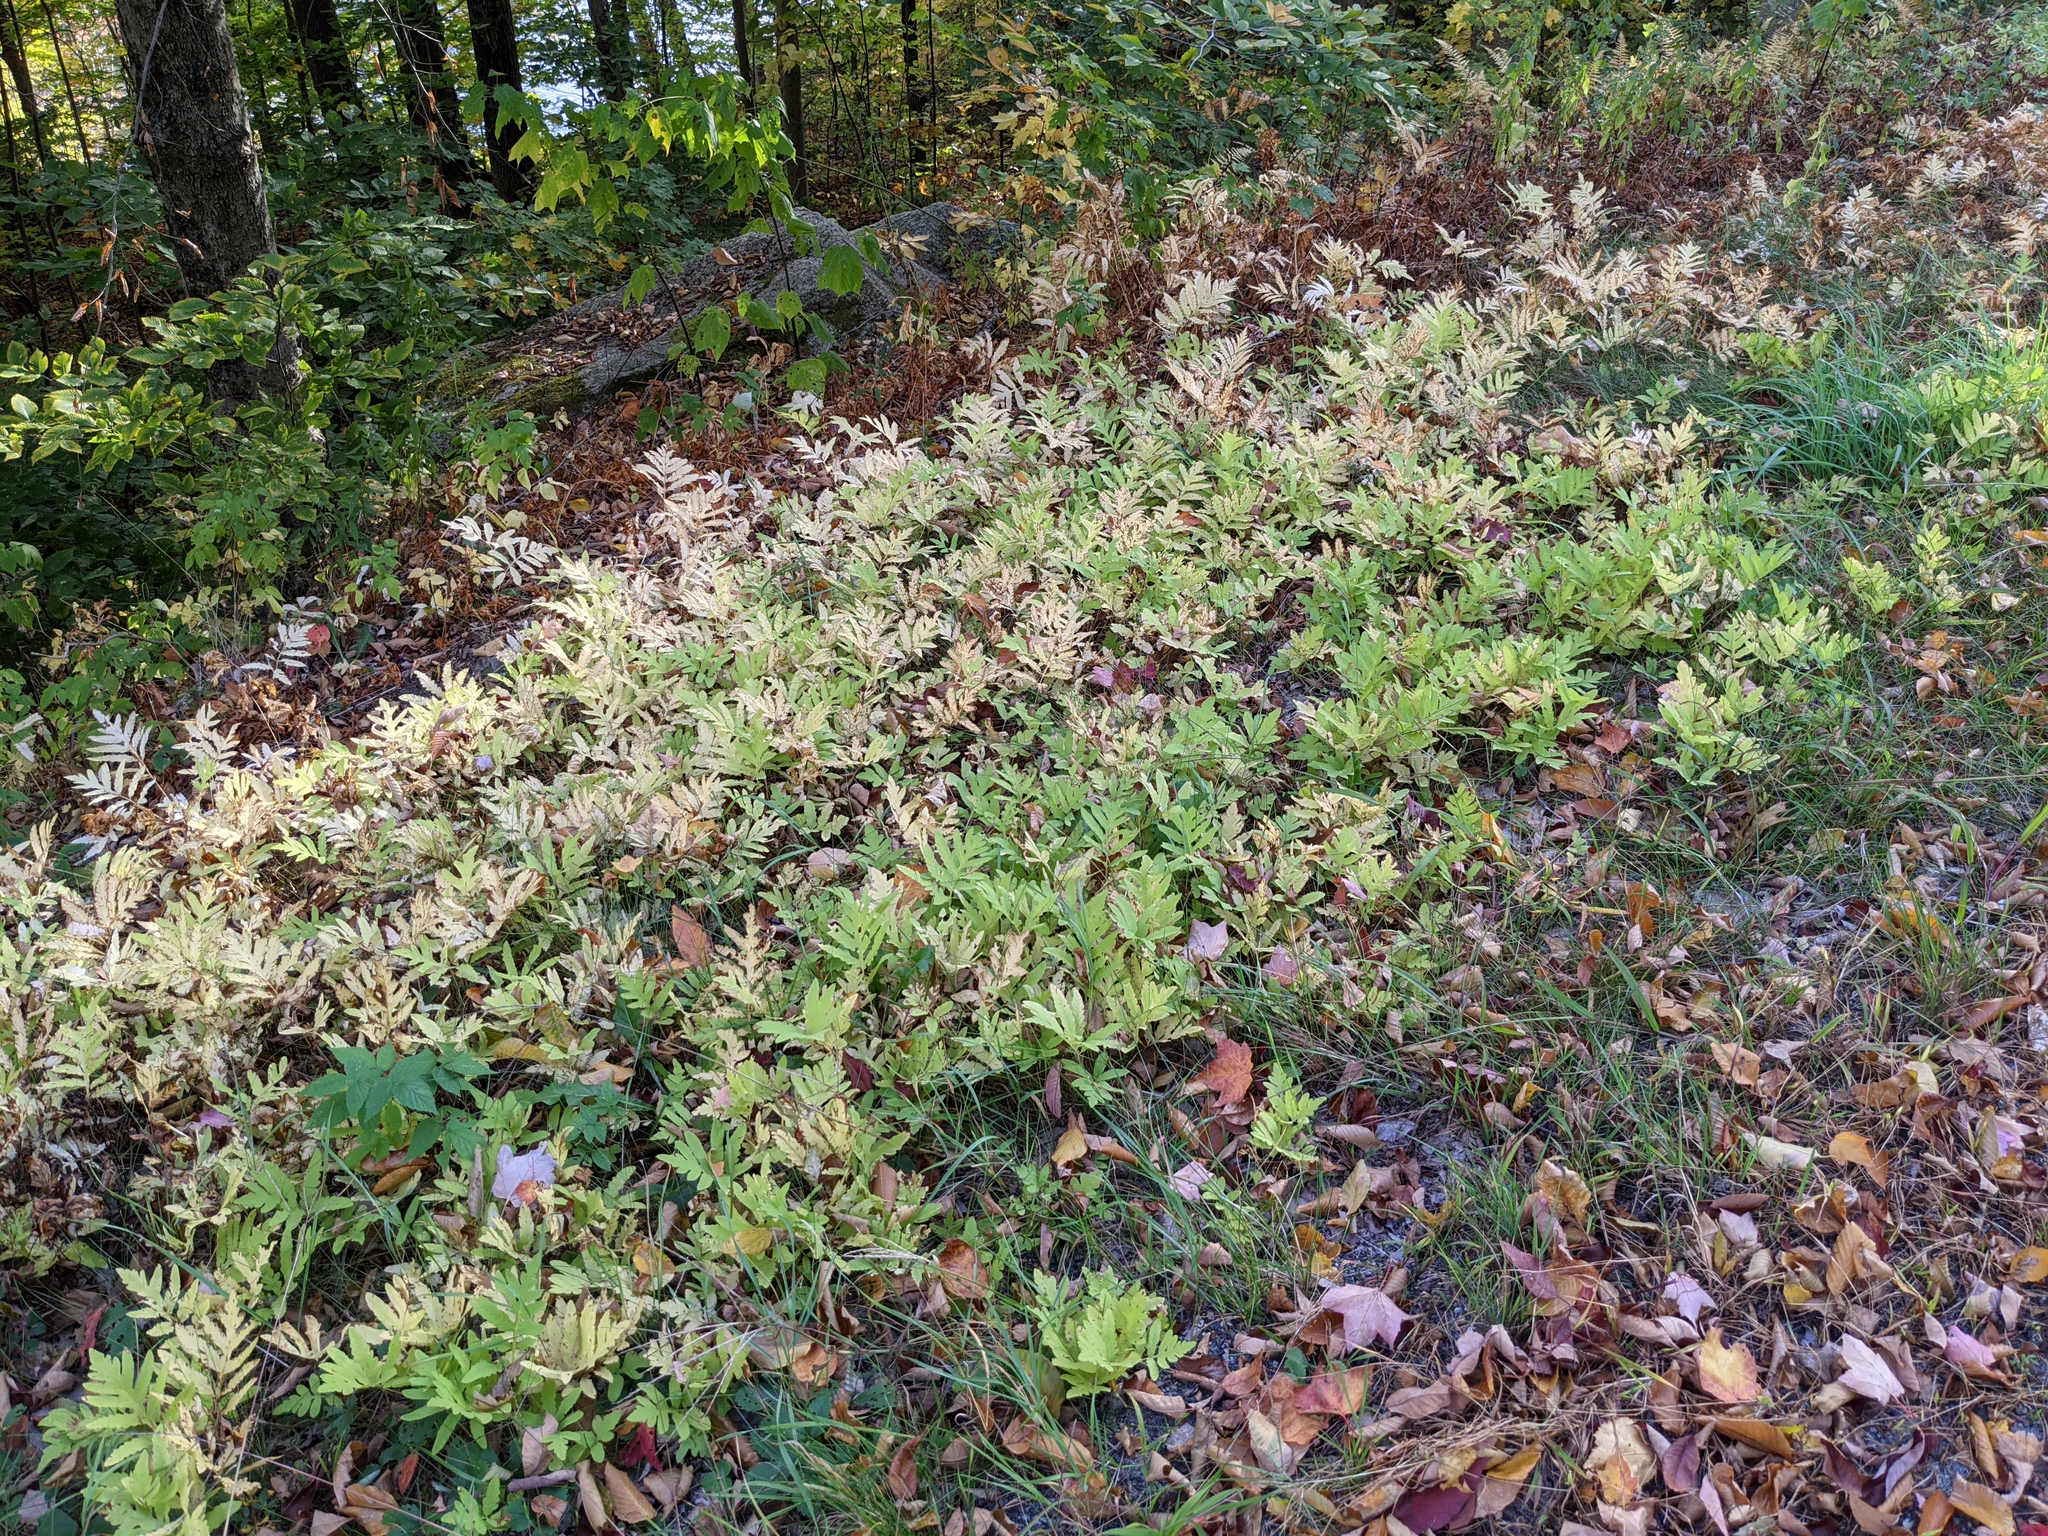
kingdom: Plantae
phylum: Tracheophyta
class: Polypodiopsida
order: Polypodiales
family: Onocleaceae
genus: Onoclea
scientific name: Onoclea sensibilis
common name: Sensitive fern
